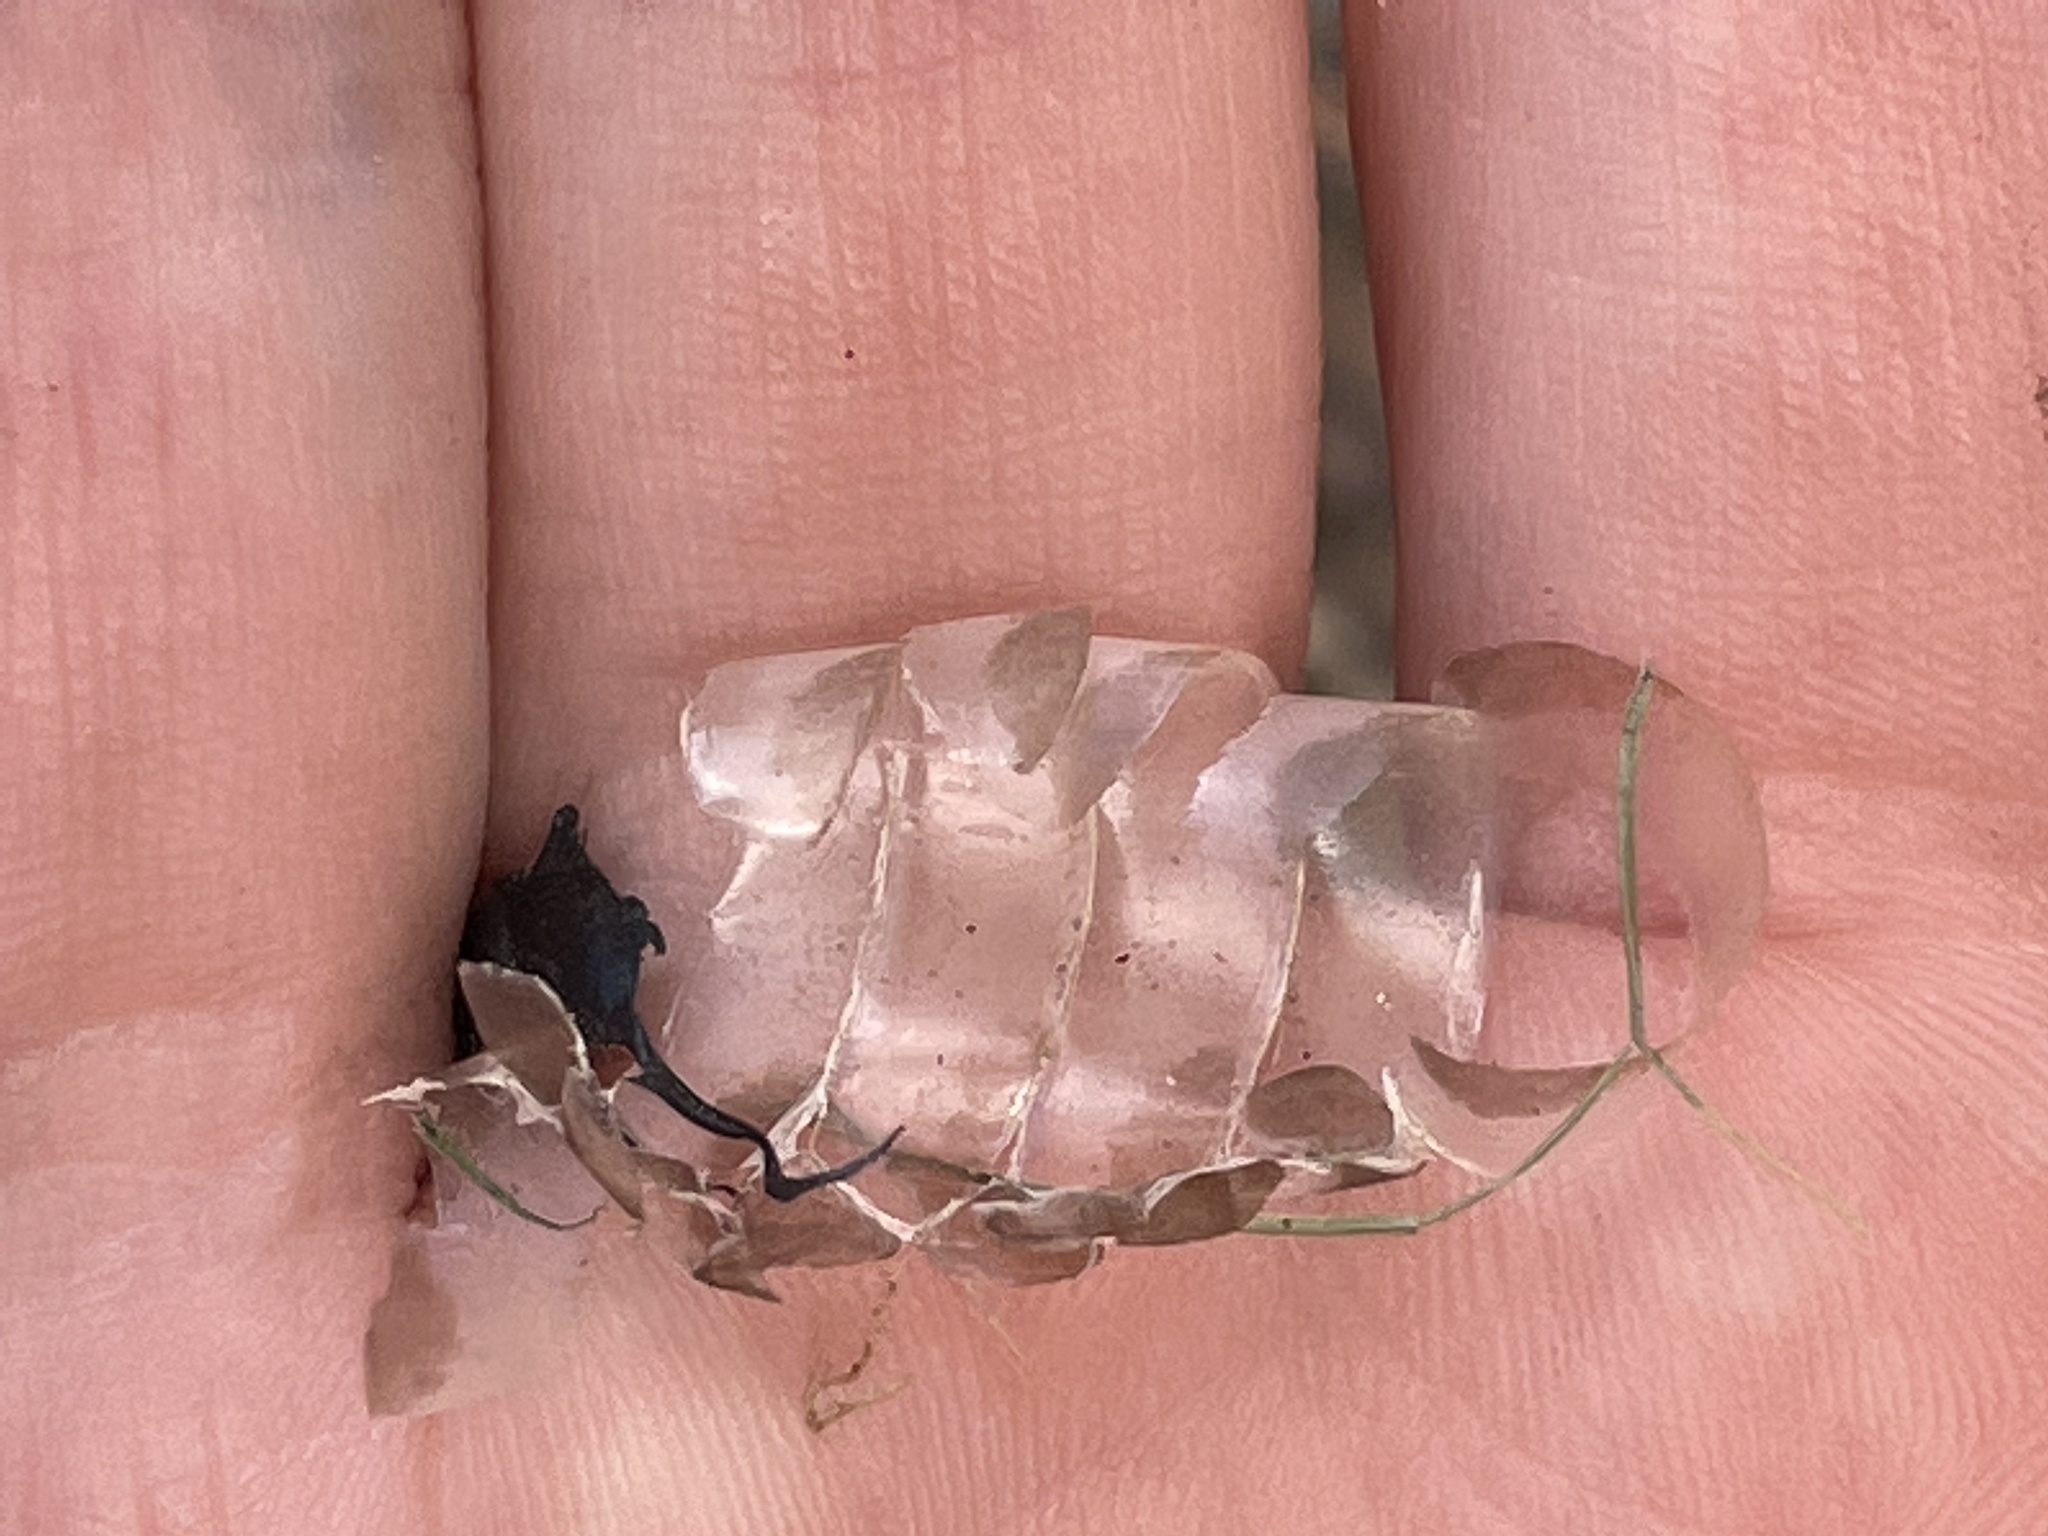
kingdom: Animalia
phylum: Chordata
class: Squamata
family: Colubridae
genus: Thamnophis
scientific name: Thamnophis sirtalis
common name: Common garter snake
